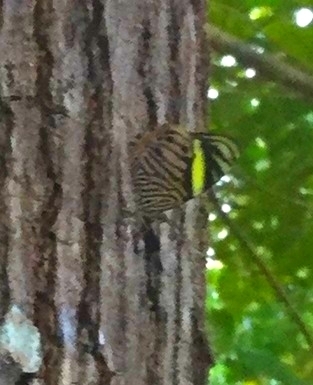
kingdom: Animalia
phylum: Arthropoda
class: Insecta
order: Lepidoptera
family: Nymphalidae
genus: Callizona
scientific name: Callizona acesta
